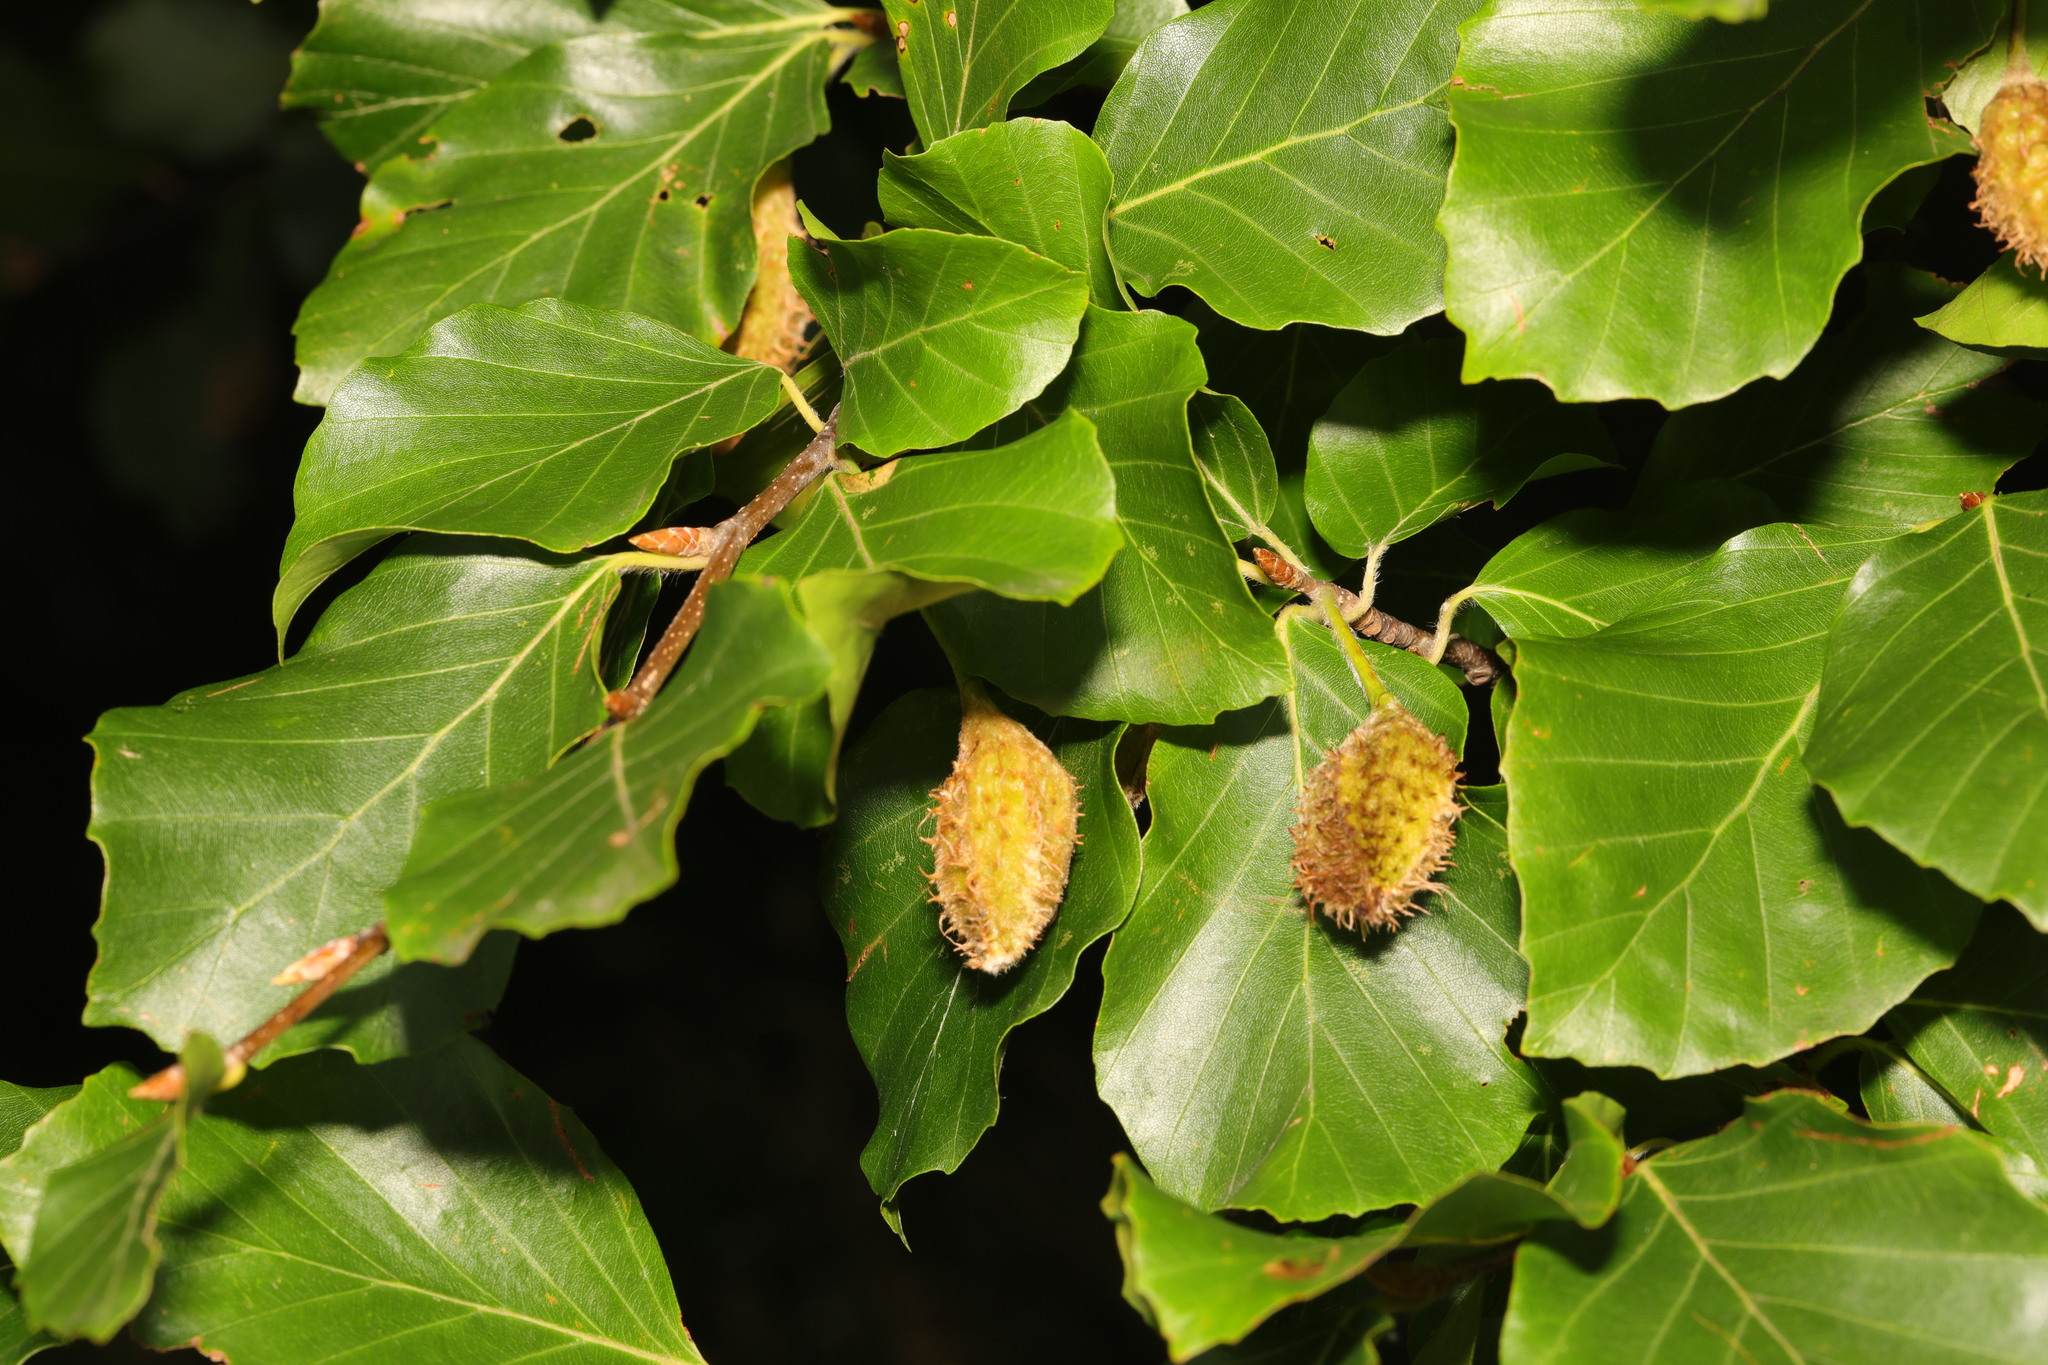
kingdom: Plantae
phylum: Tracheophyta
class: Magnoliopsida
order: Fagales
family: Fagaceae
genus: Fagus
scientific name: Fagus sylvatica
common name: Beech
